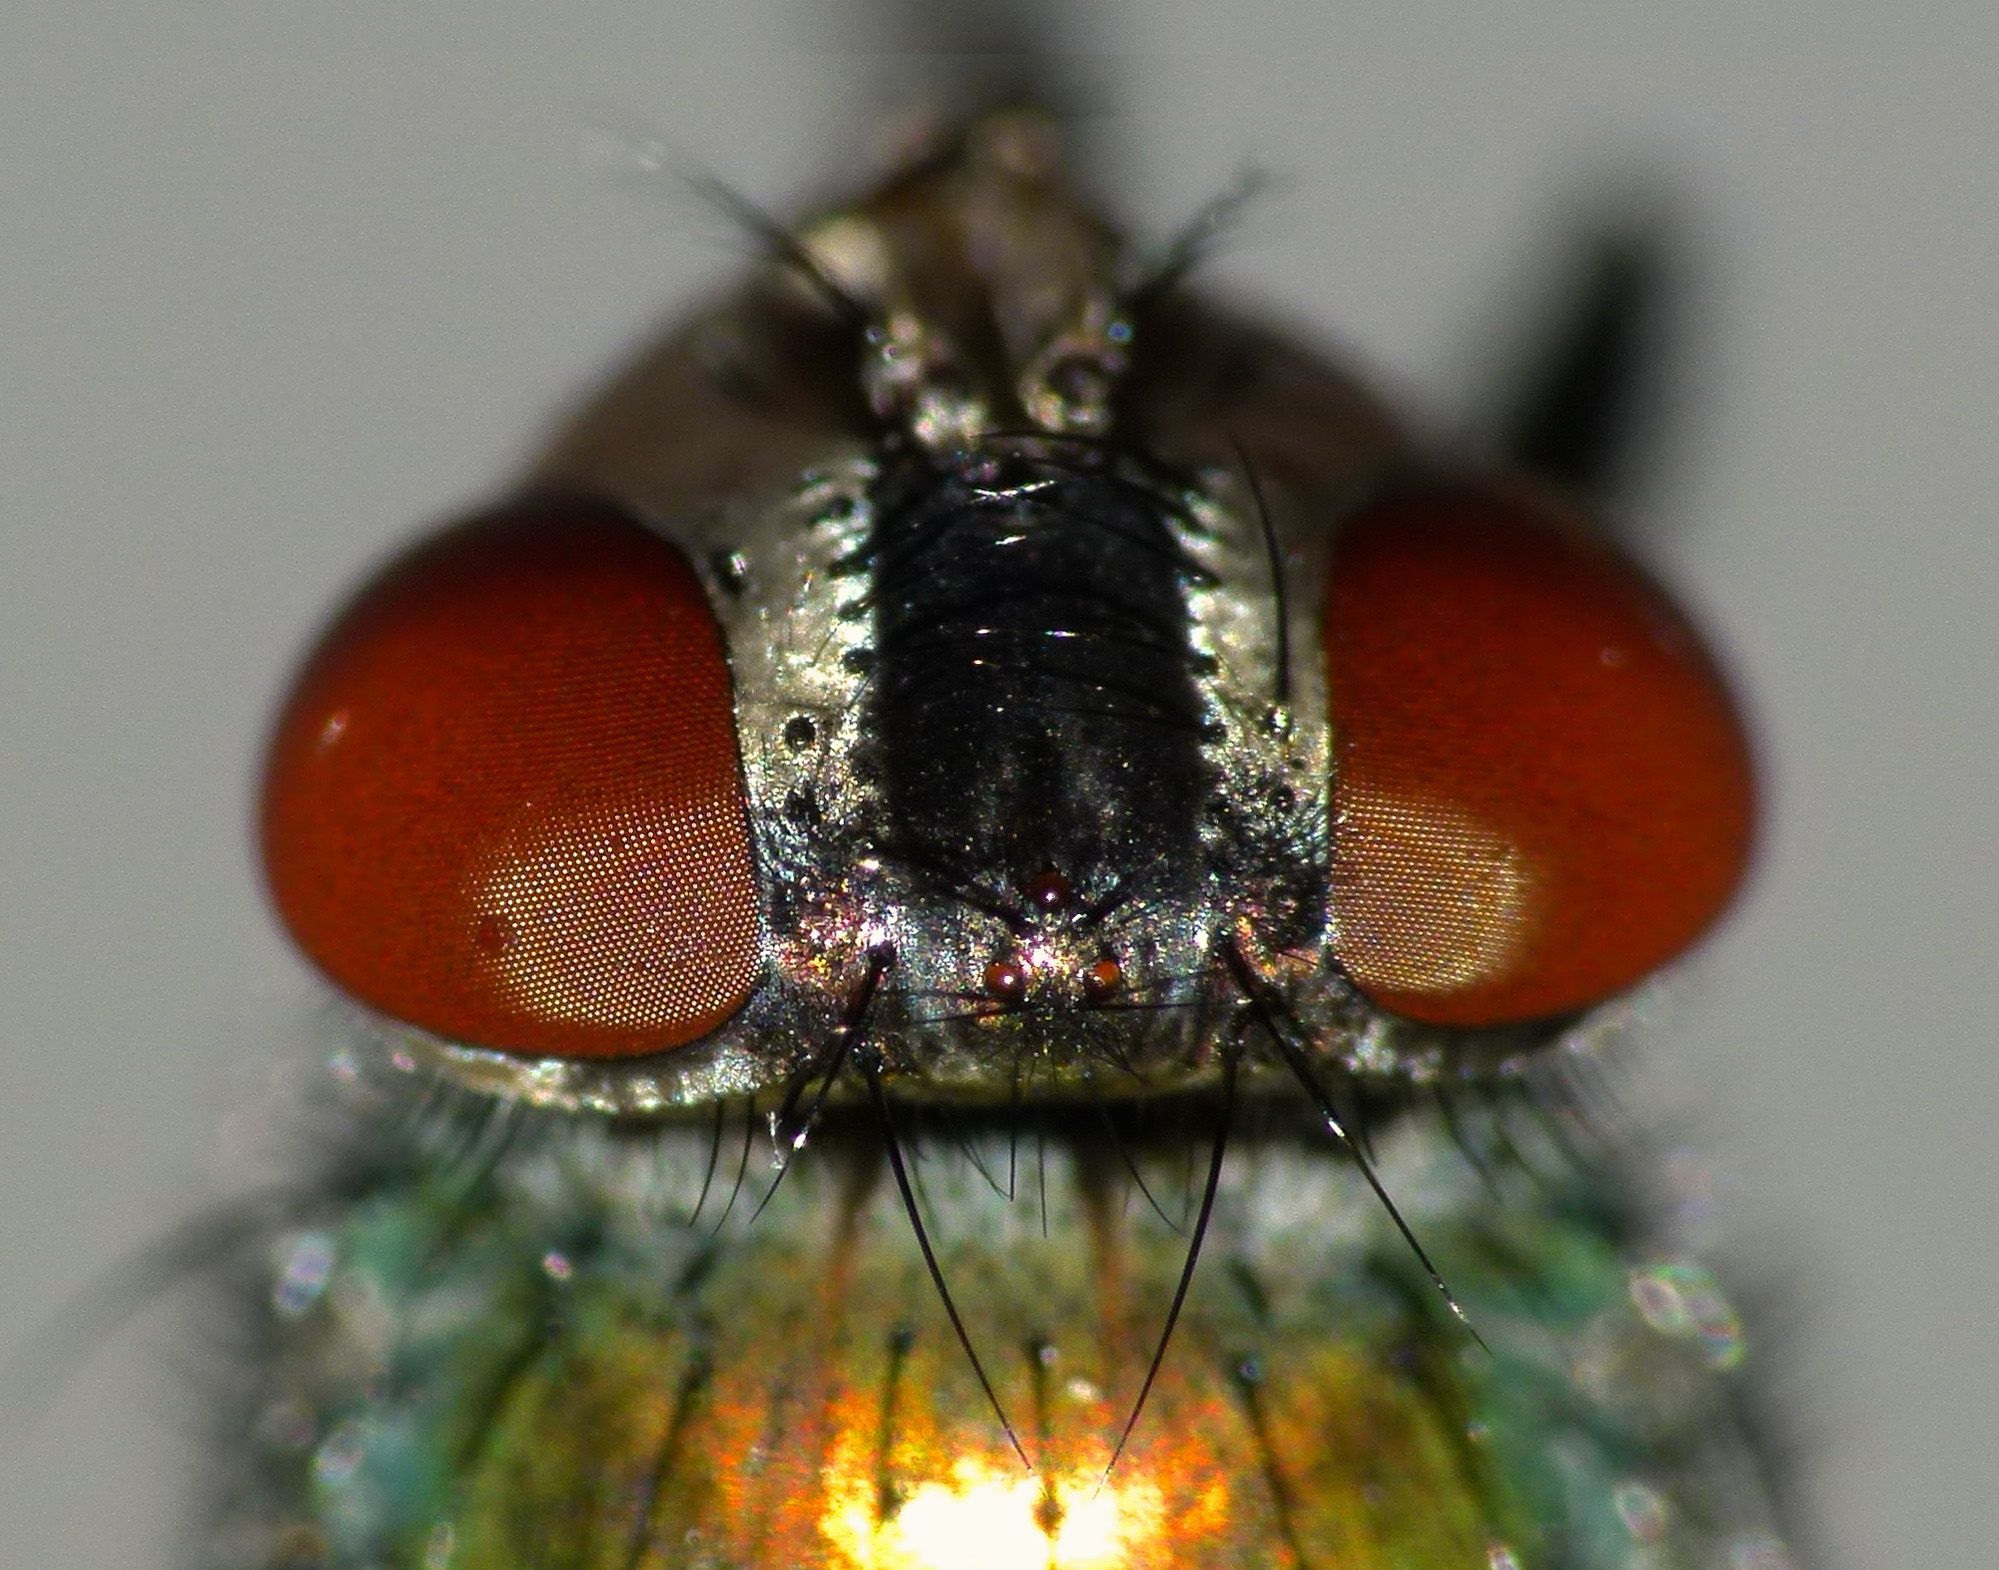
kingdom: Animalia
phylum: Arthropoda
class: Insecta
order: Diptera
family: Calliphoridae
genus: Lucilia
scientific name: Lucilia sericata
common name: Blow fly
